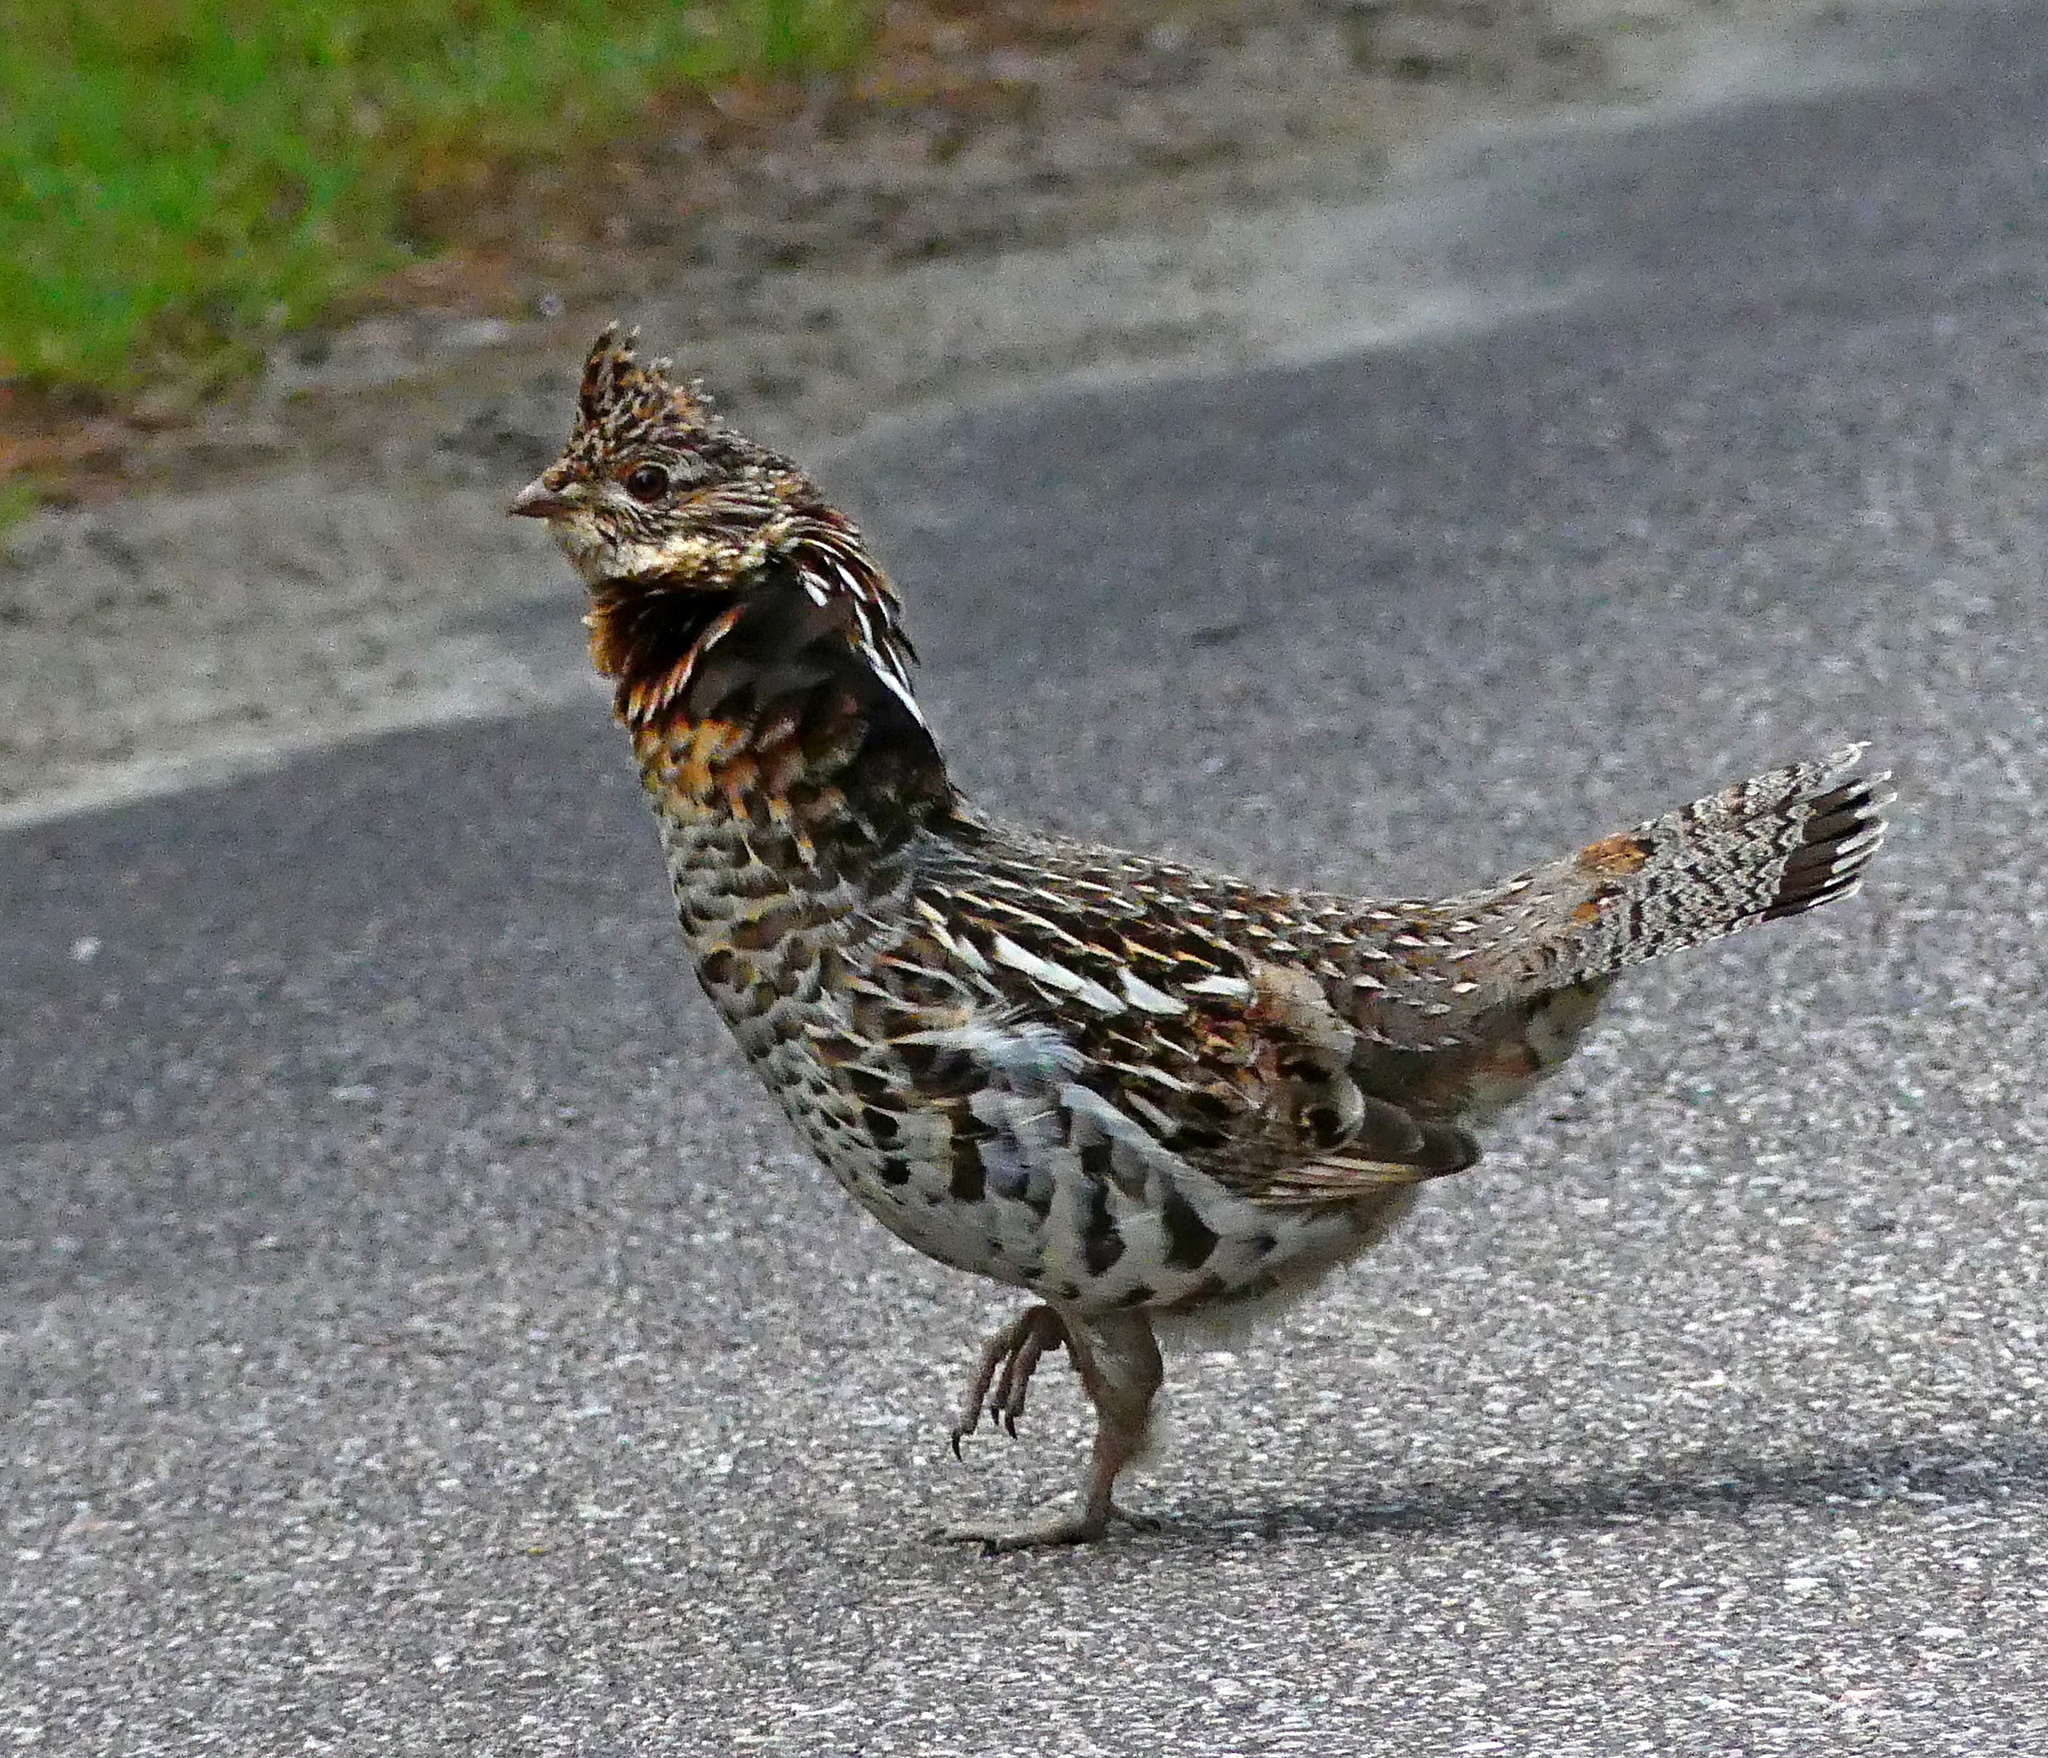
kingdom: Animalia
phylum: Chordata
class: Aves
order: Galliformes
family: Phasianidae
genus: Bonasa
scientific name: Bonasa umbellus
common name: Ruffed grouse
